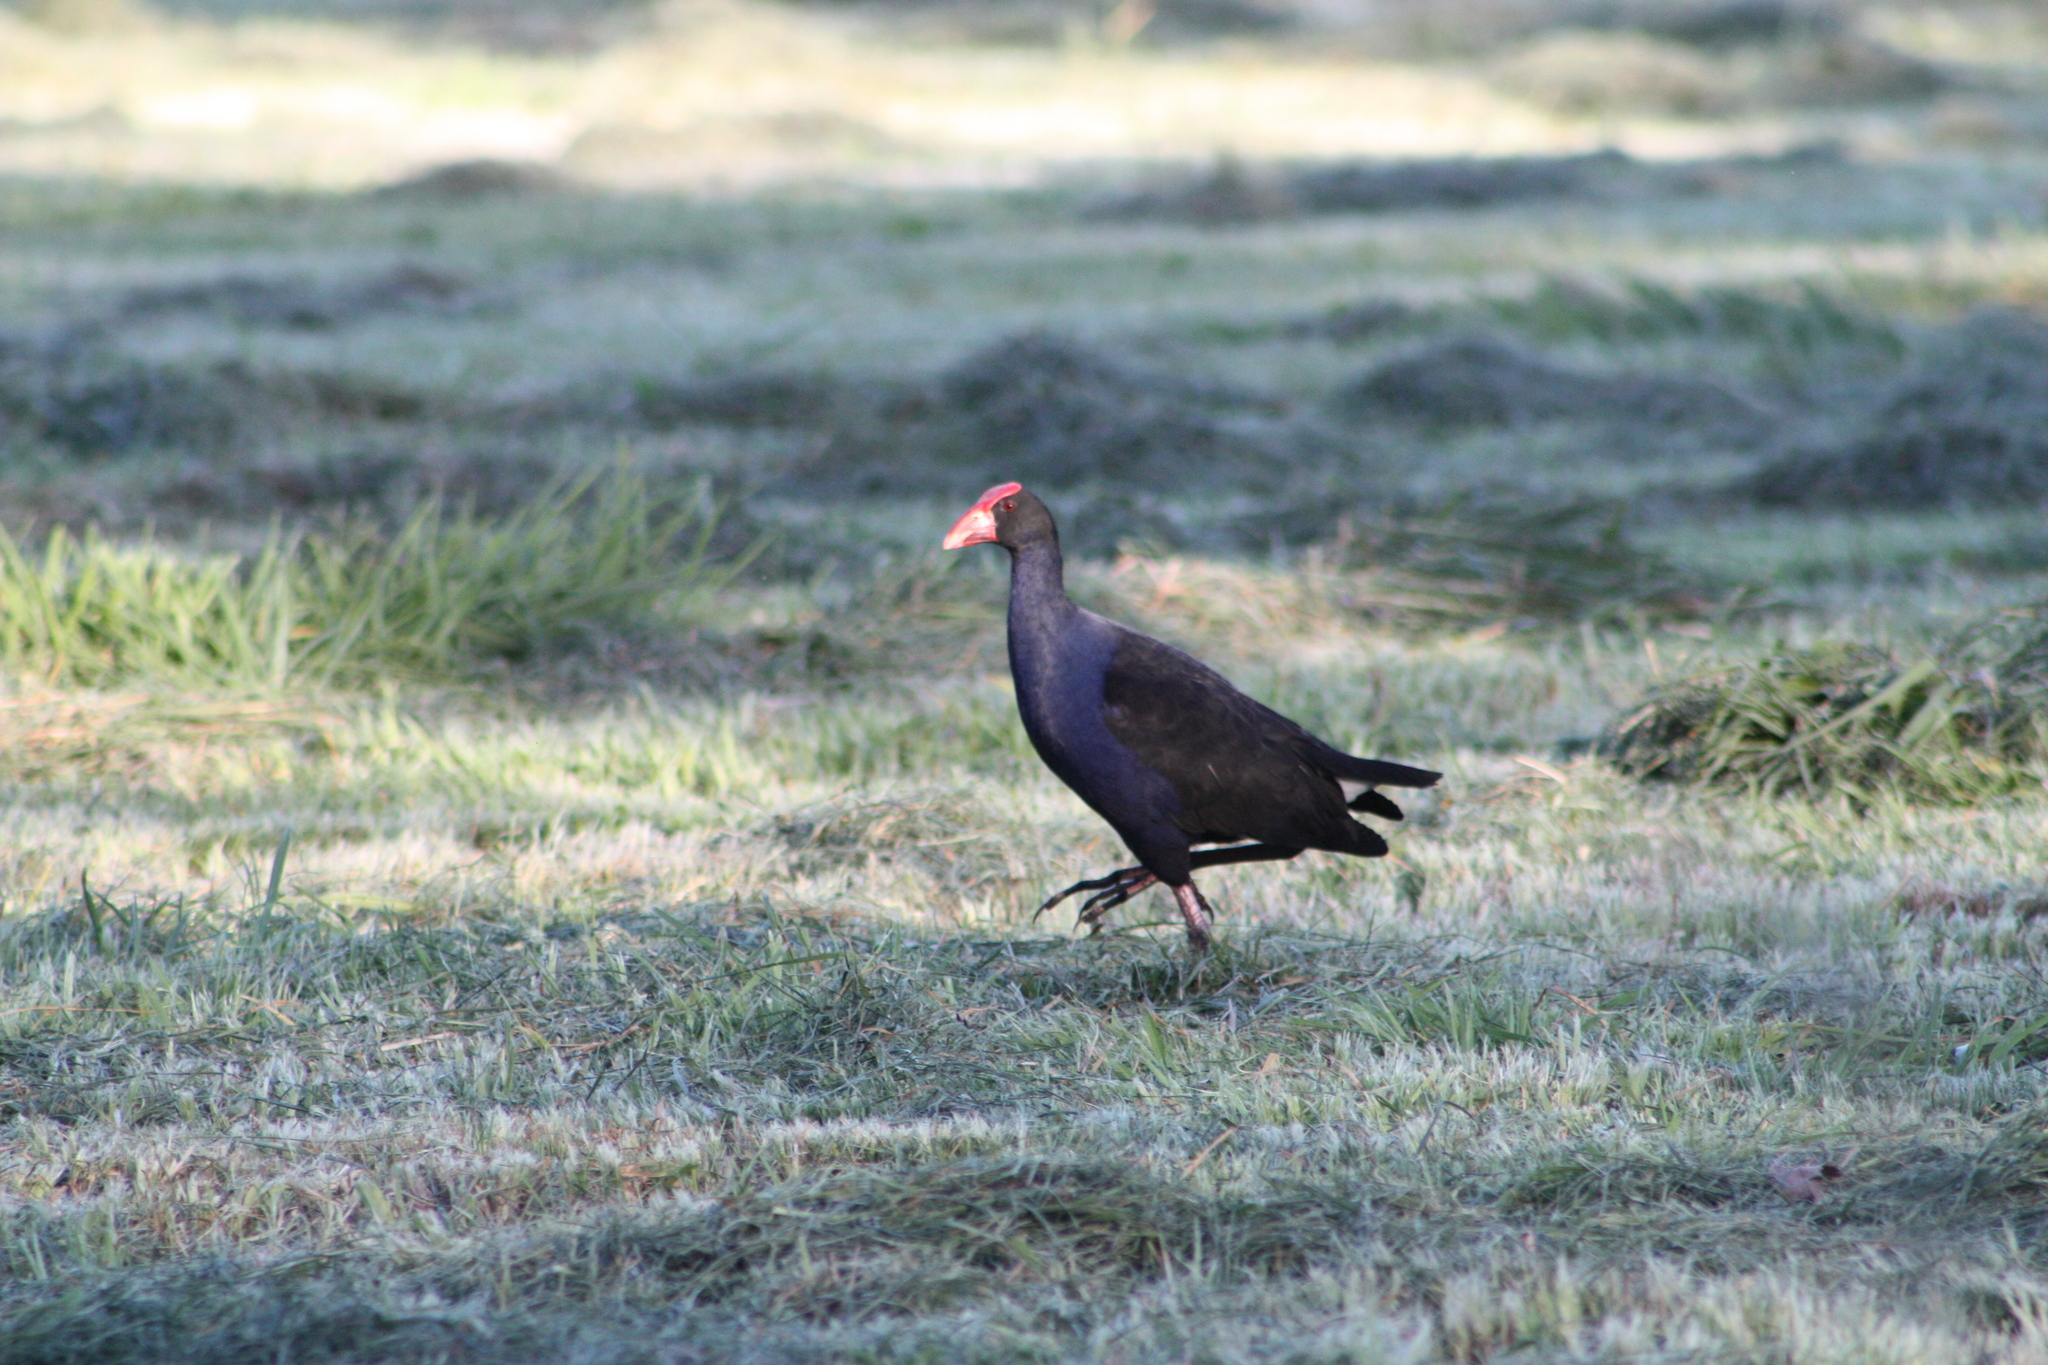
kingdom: Animalia
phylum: Chordata
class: Aves
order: Gruiformes
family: Rallidae
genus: Porphyrio
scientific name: Porphyrio melanotus
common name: Australasian swamphen
